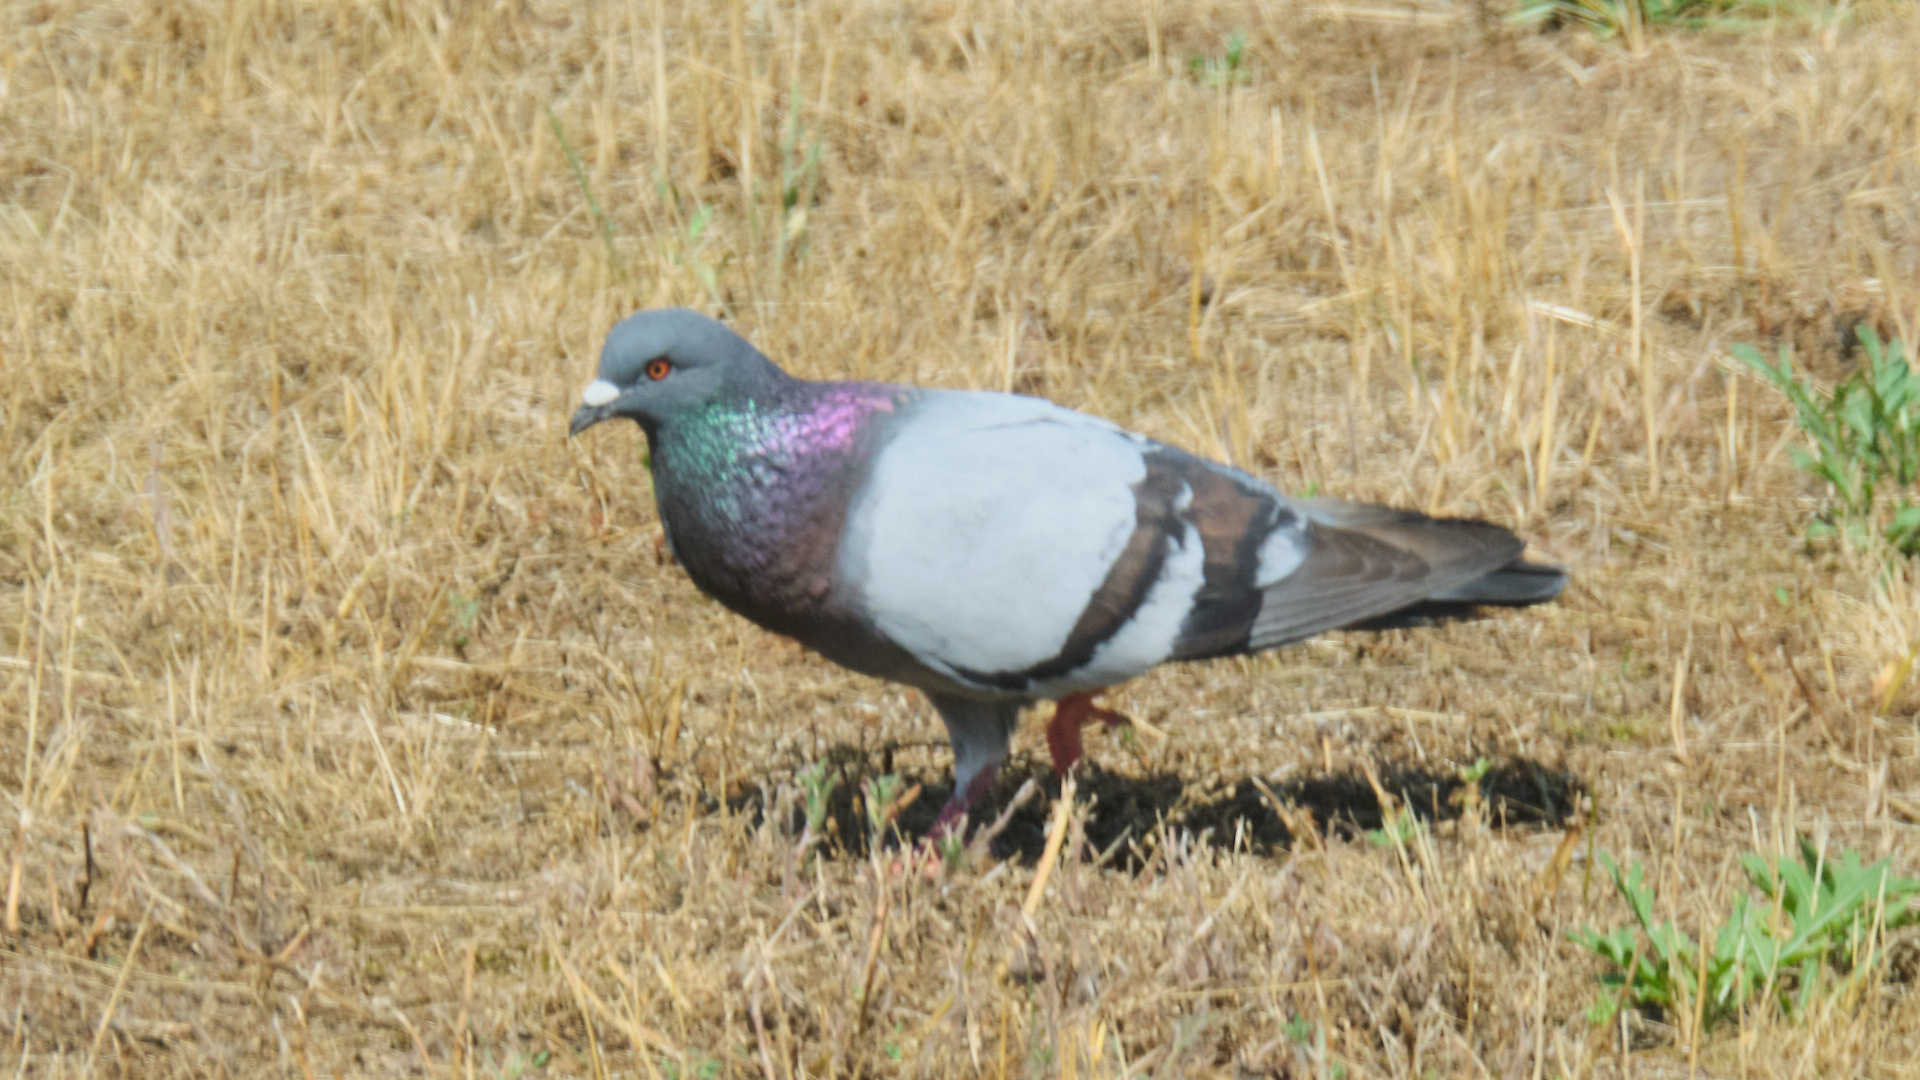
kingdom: Animalia
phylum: Chordata
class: Aves
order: Columbiformes
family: Columbidae
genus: Columba
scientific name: Columba livia
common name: Rock pigeon
